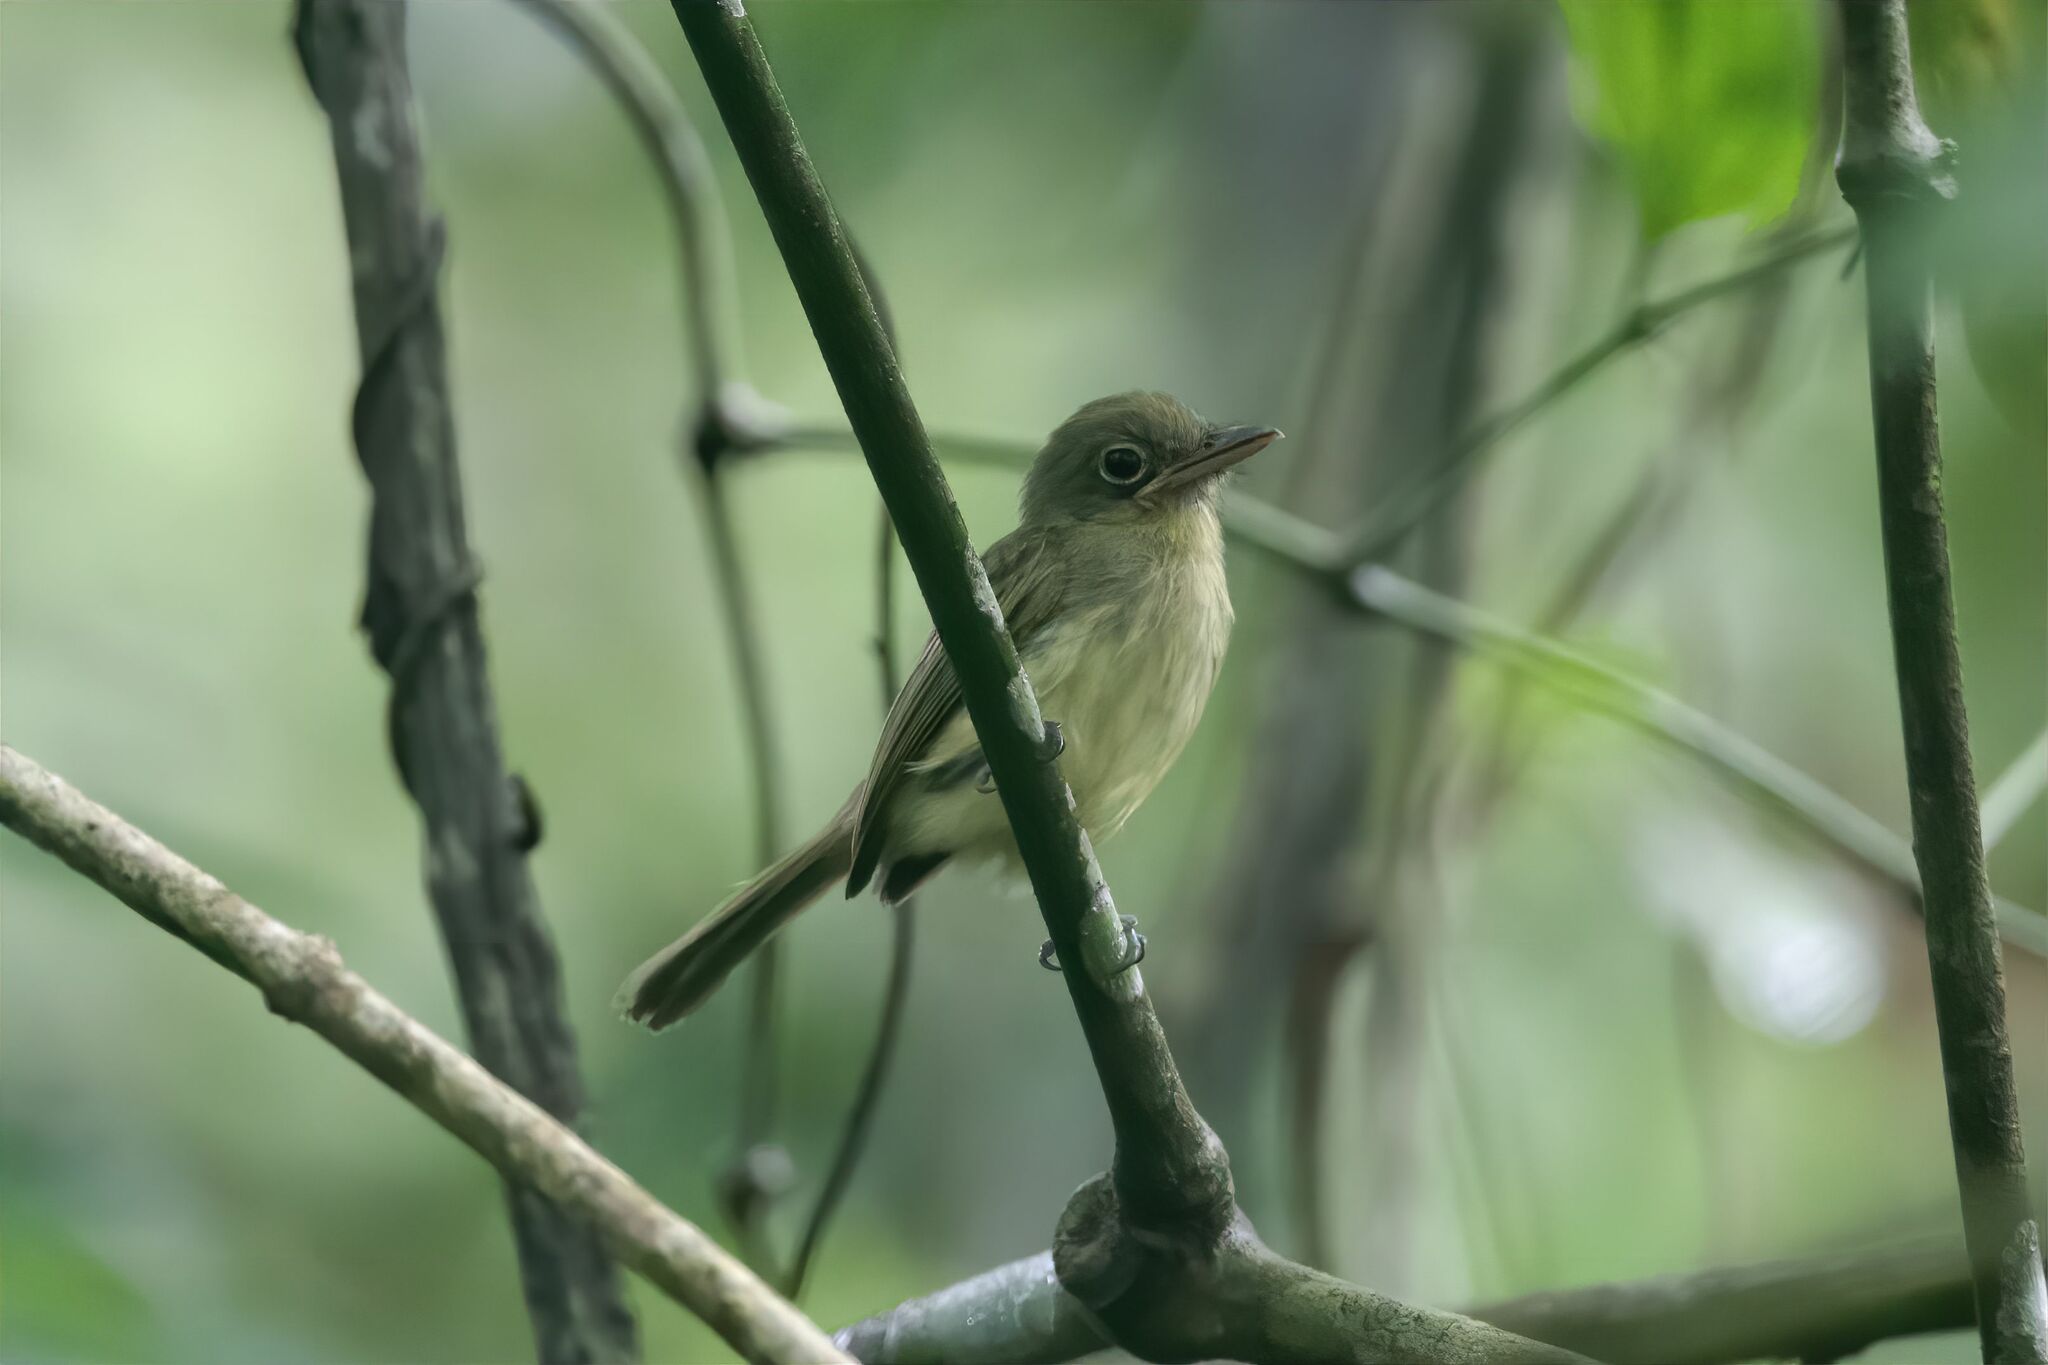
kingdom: Animalia
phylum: Chordata
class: Aves
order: Passeriformes
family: Tyrannidae
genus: Rhynchocyclus
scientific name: Rhynchocyclus olivaceus
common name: Olivaceous flatbill
